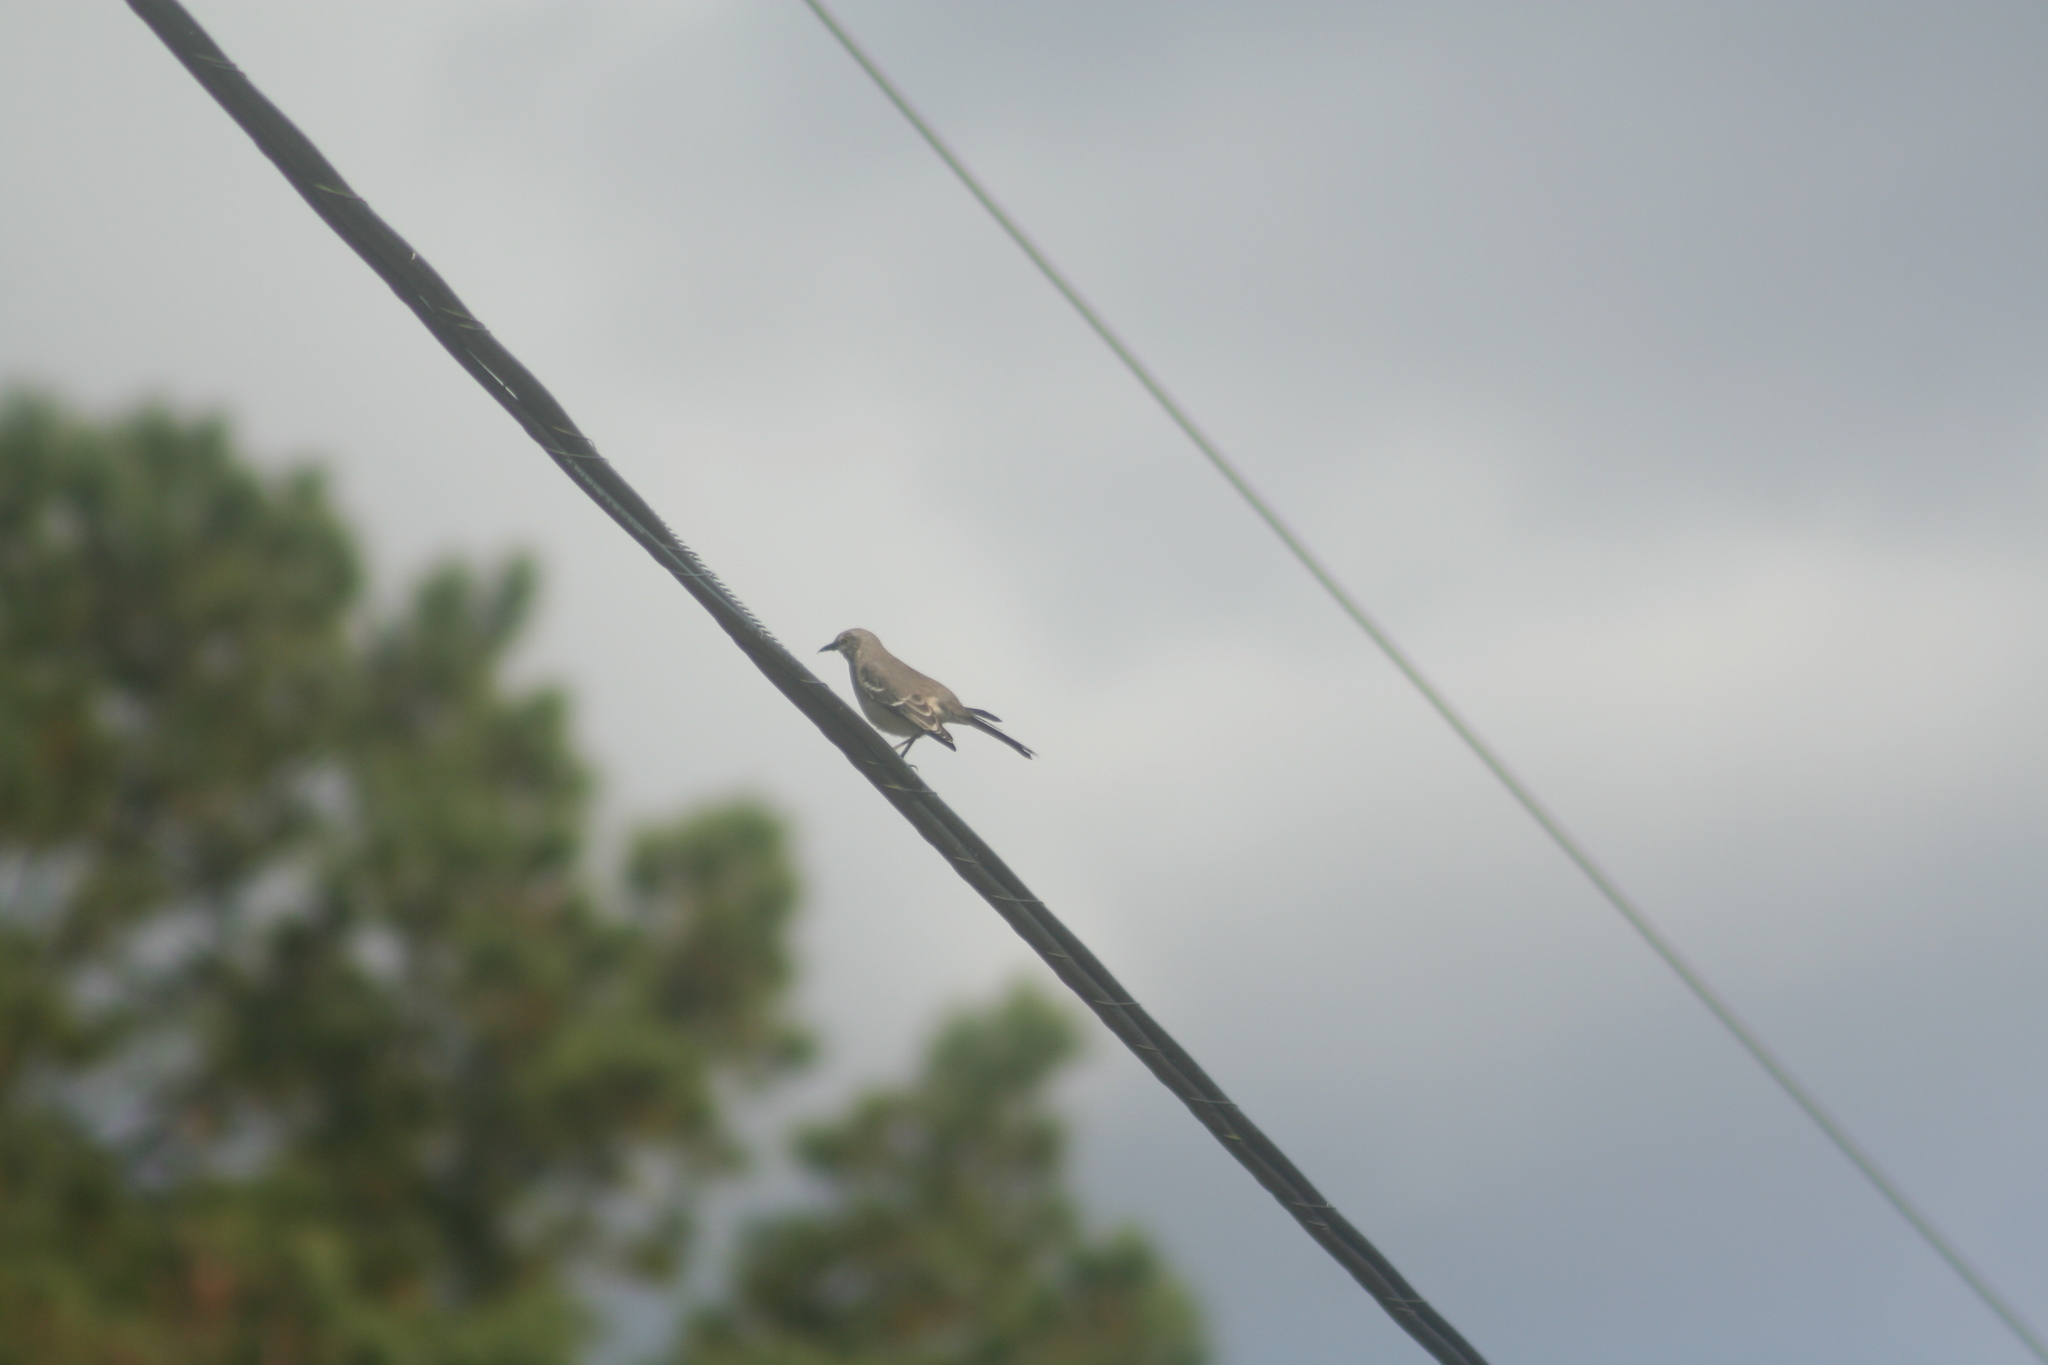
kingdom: Animalia
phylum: Chordata
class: Aves
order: Passeriformes
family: Mimidae
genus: Mimus
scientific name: Mimus polyglottos
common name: Northern mockingbird
